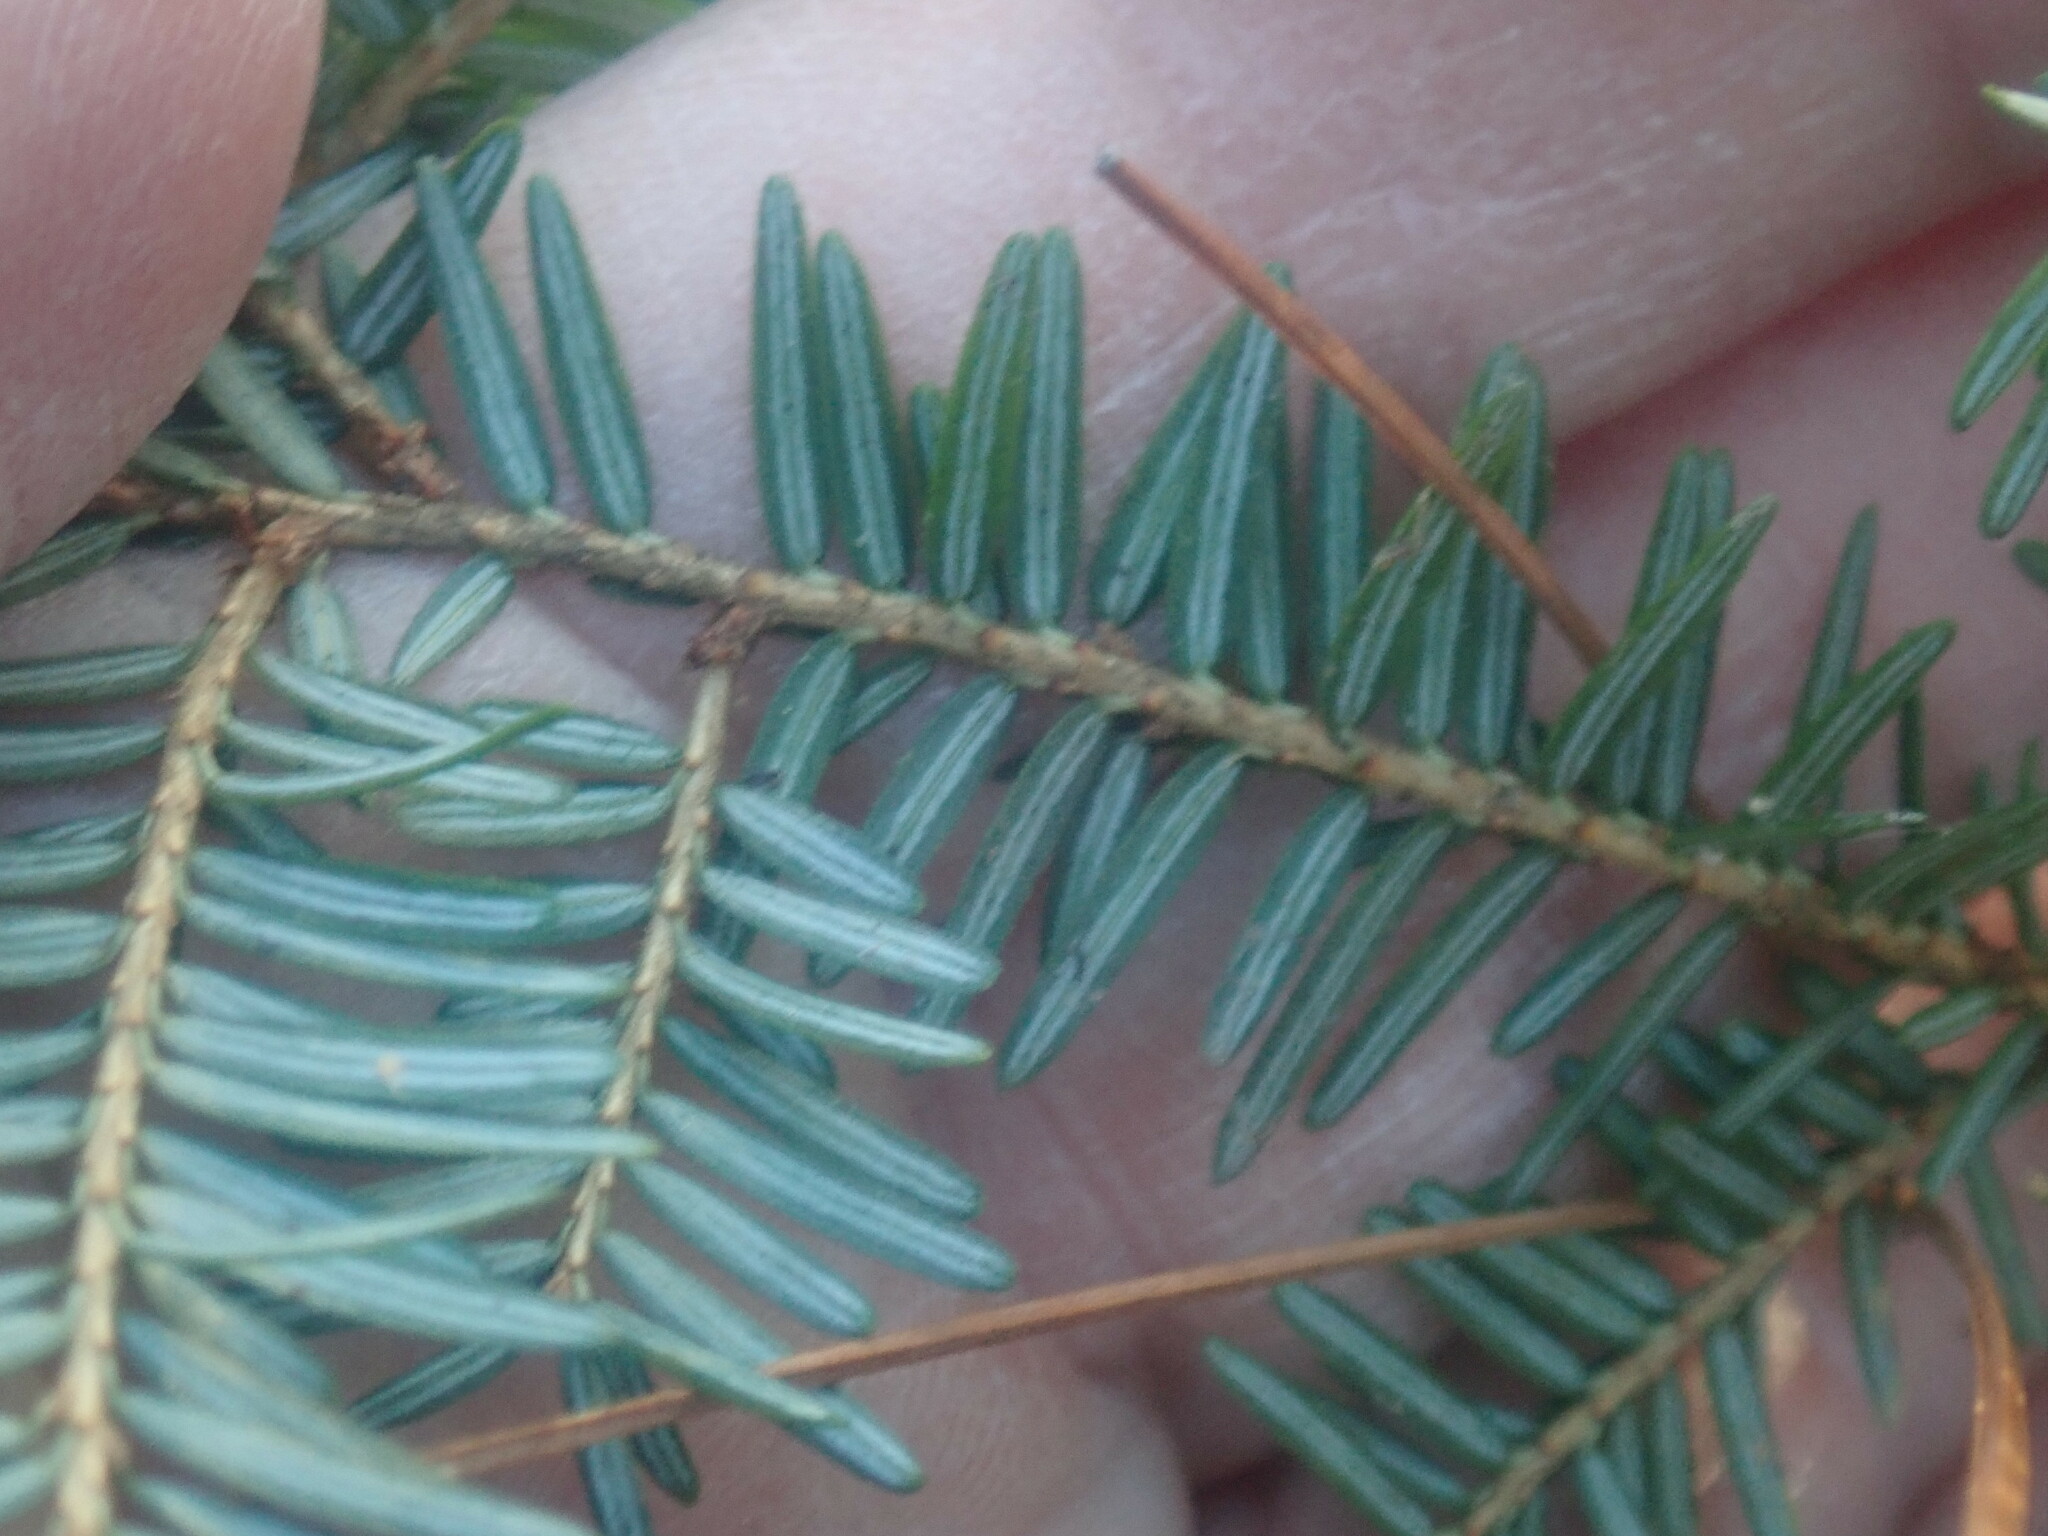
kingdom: Plantae
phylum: Tracheophyta
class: Pinopsida
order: Pinales
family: Pinaceae
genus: Tsuga
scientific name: Tsuga canadensis
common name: Eastern hemlock
